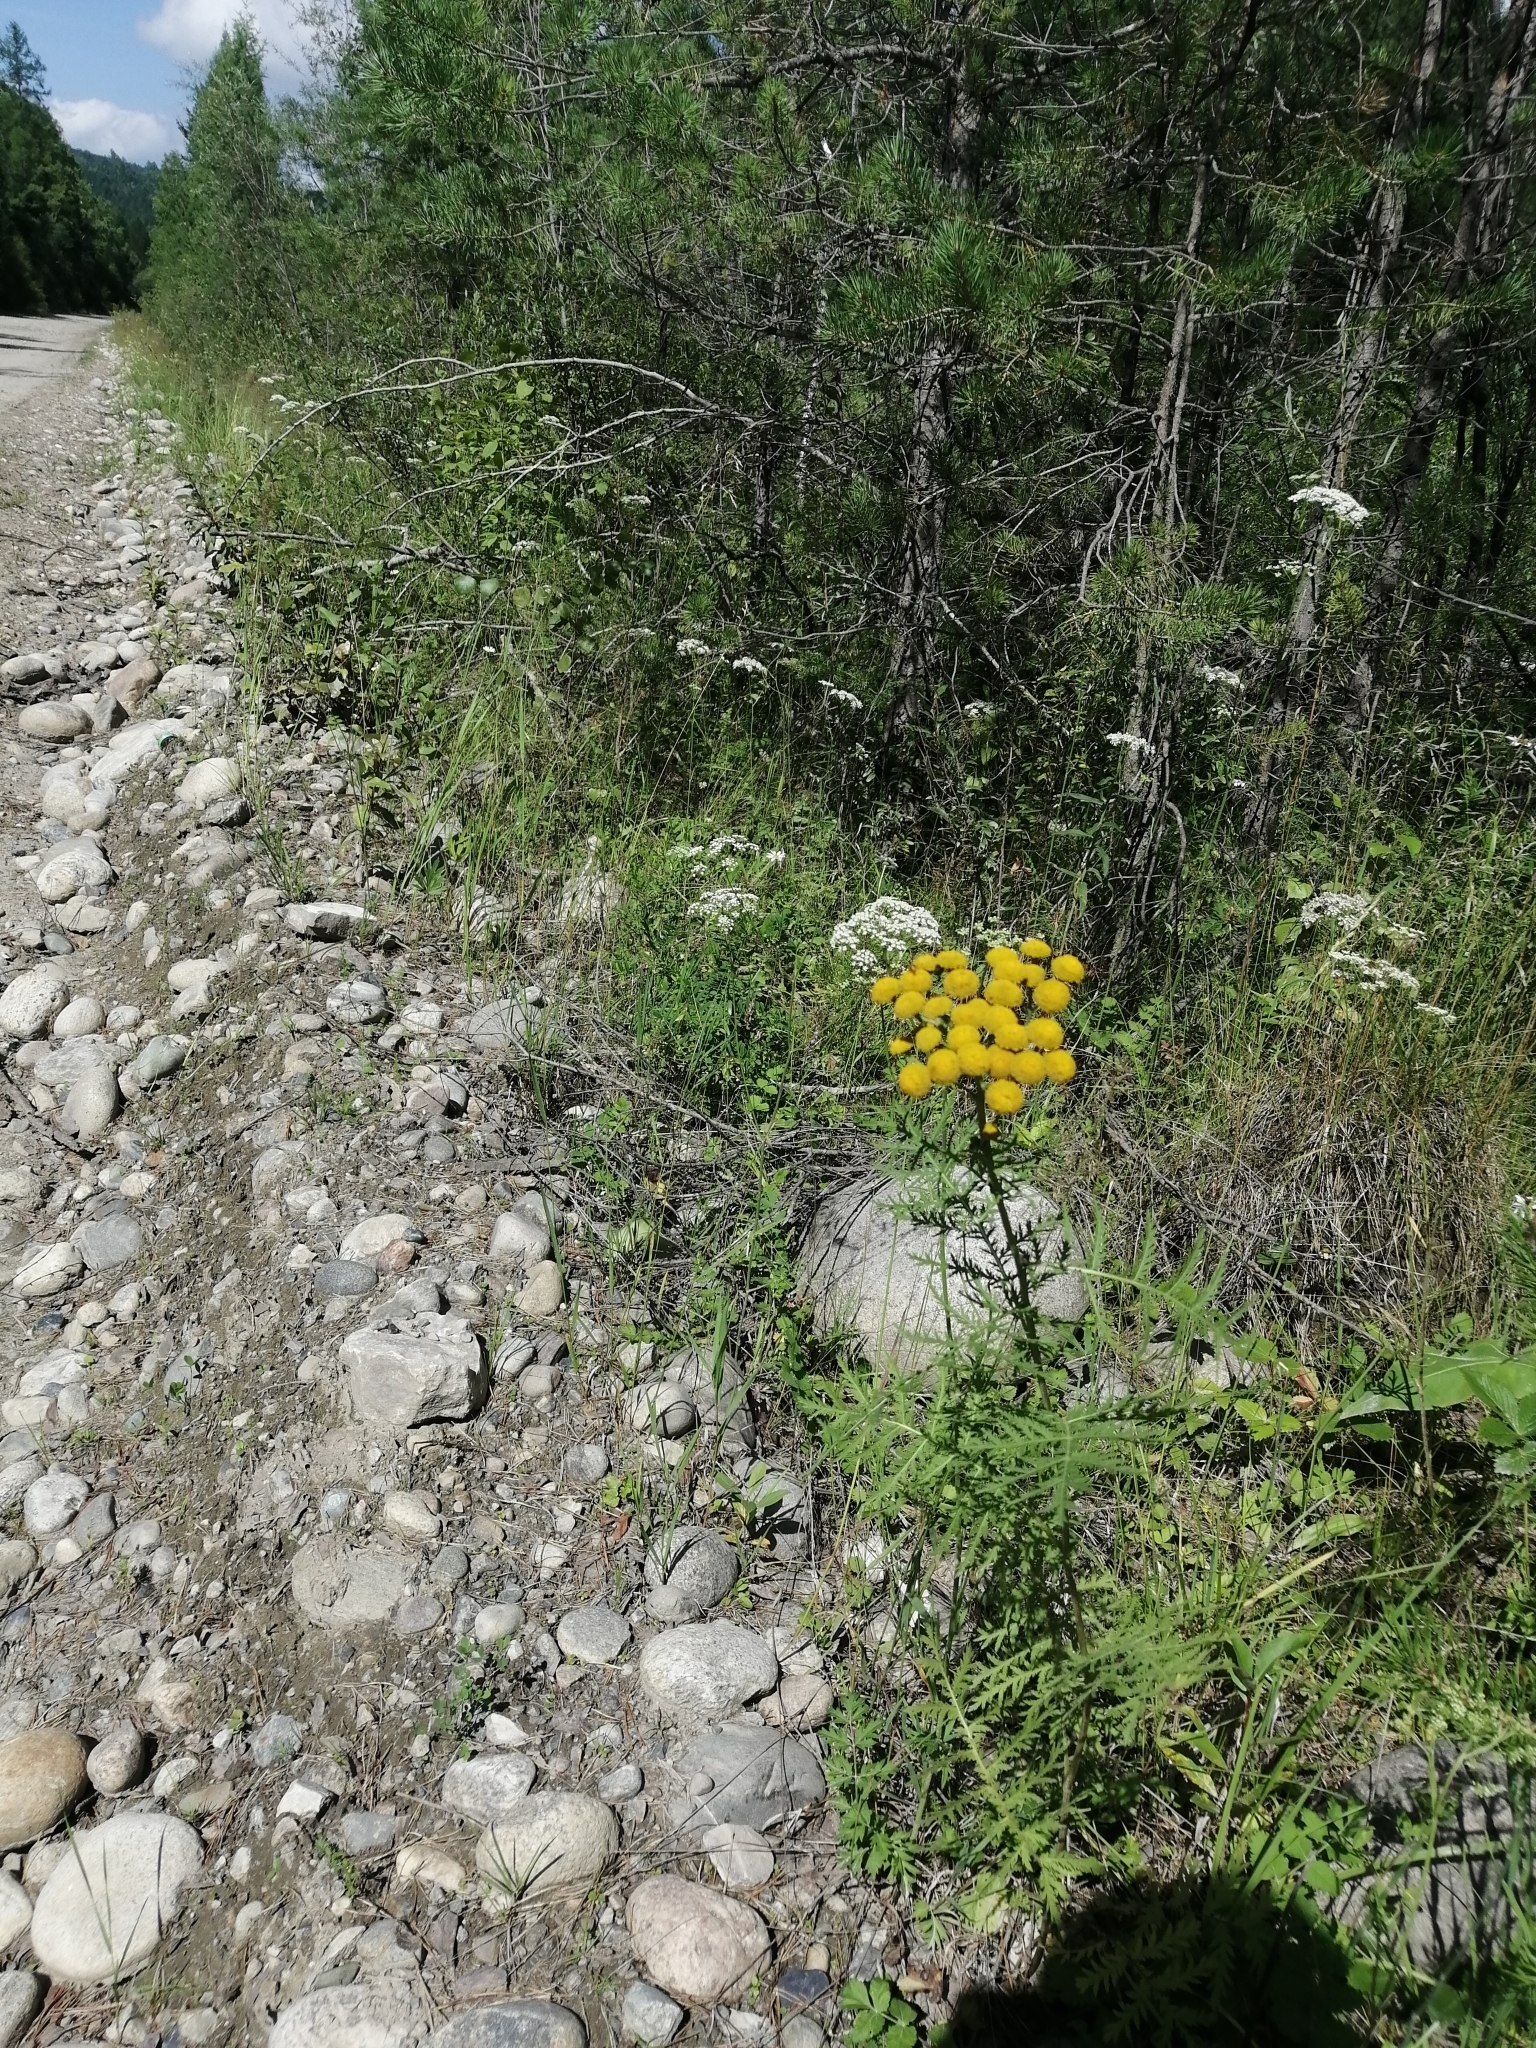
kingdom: Plantae
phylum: Tracheophyta
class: Magnoliopsida
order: Asterales
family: Asteraceae
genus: Tanacetum
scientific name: Tanacetum vulgare
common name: Common tansy
